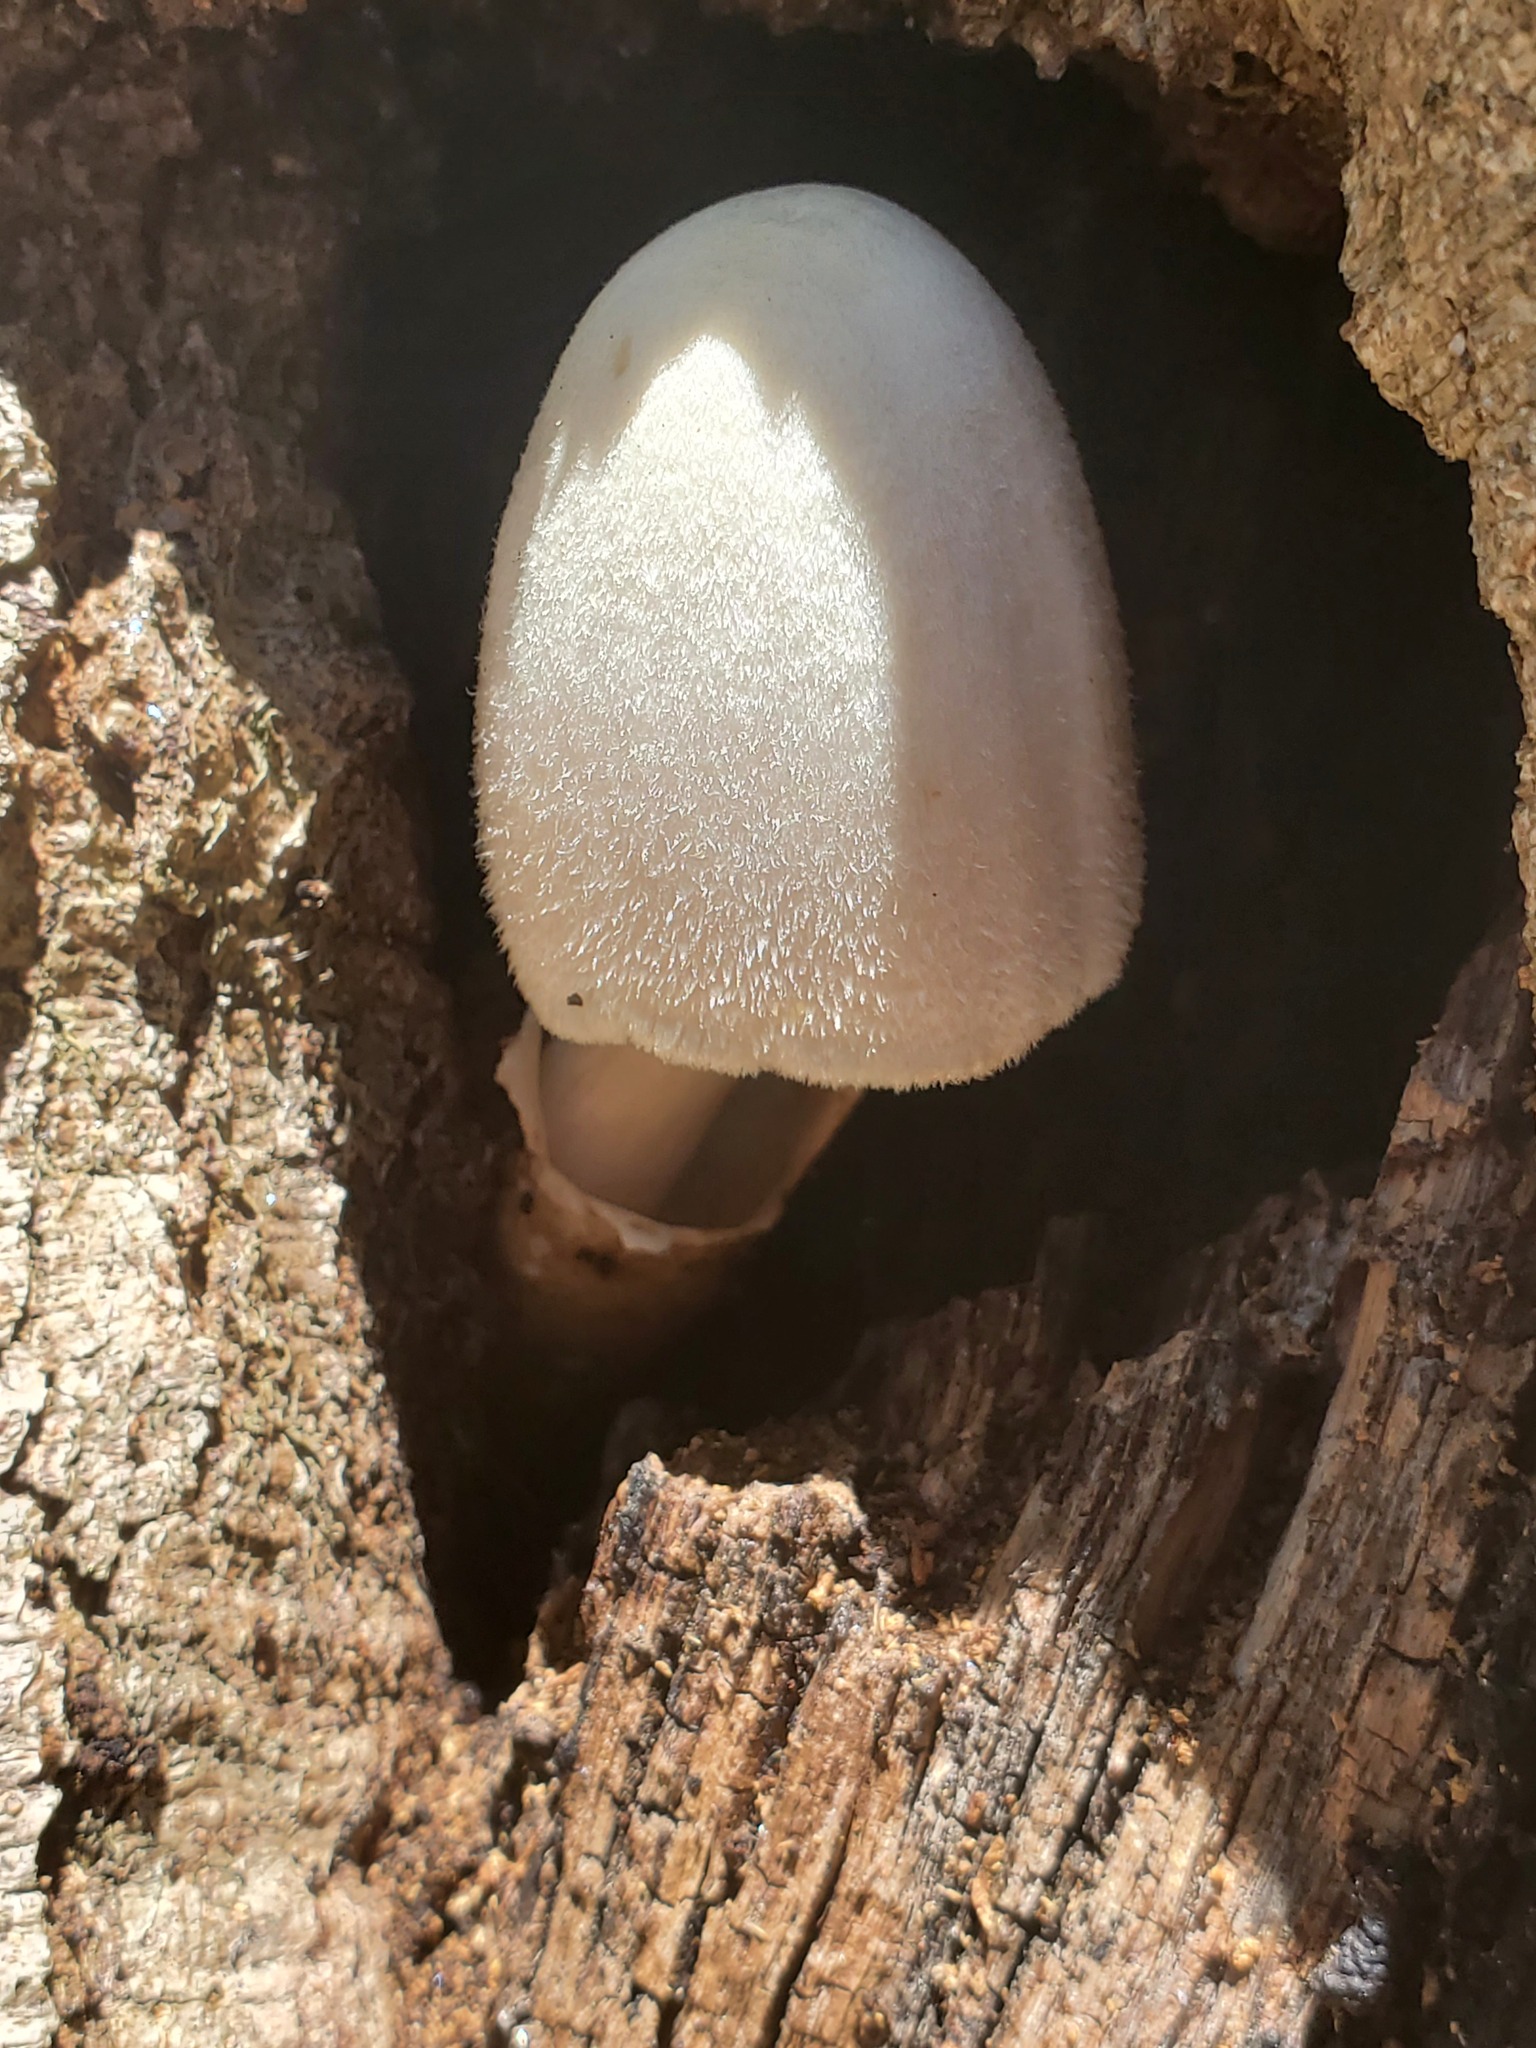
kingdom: Fungi
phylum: Basidiomycota
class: Agaricomycetes
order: Agaricales
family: Pluteaceae
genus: Volvariella
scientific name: Volvariella bombycina
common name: Silky rosegill
